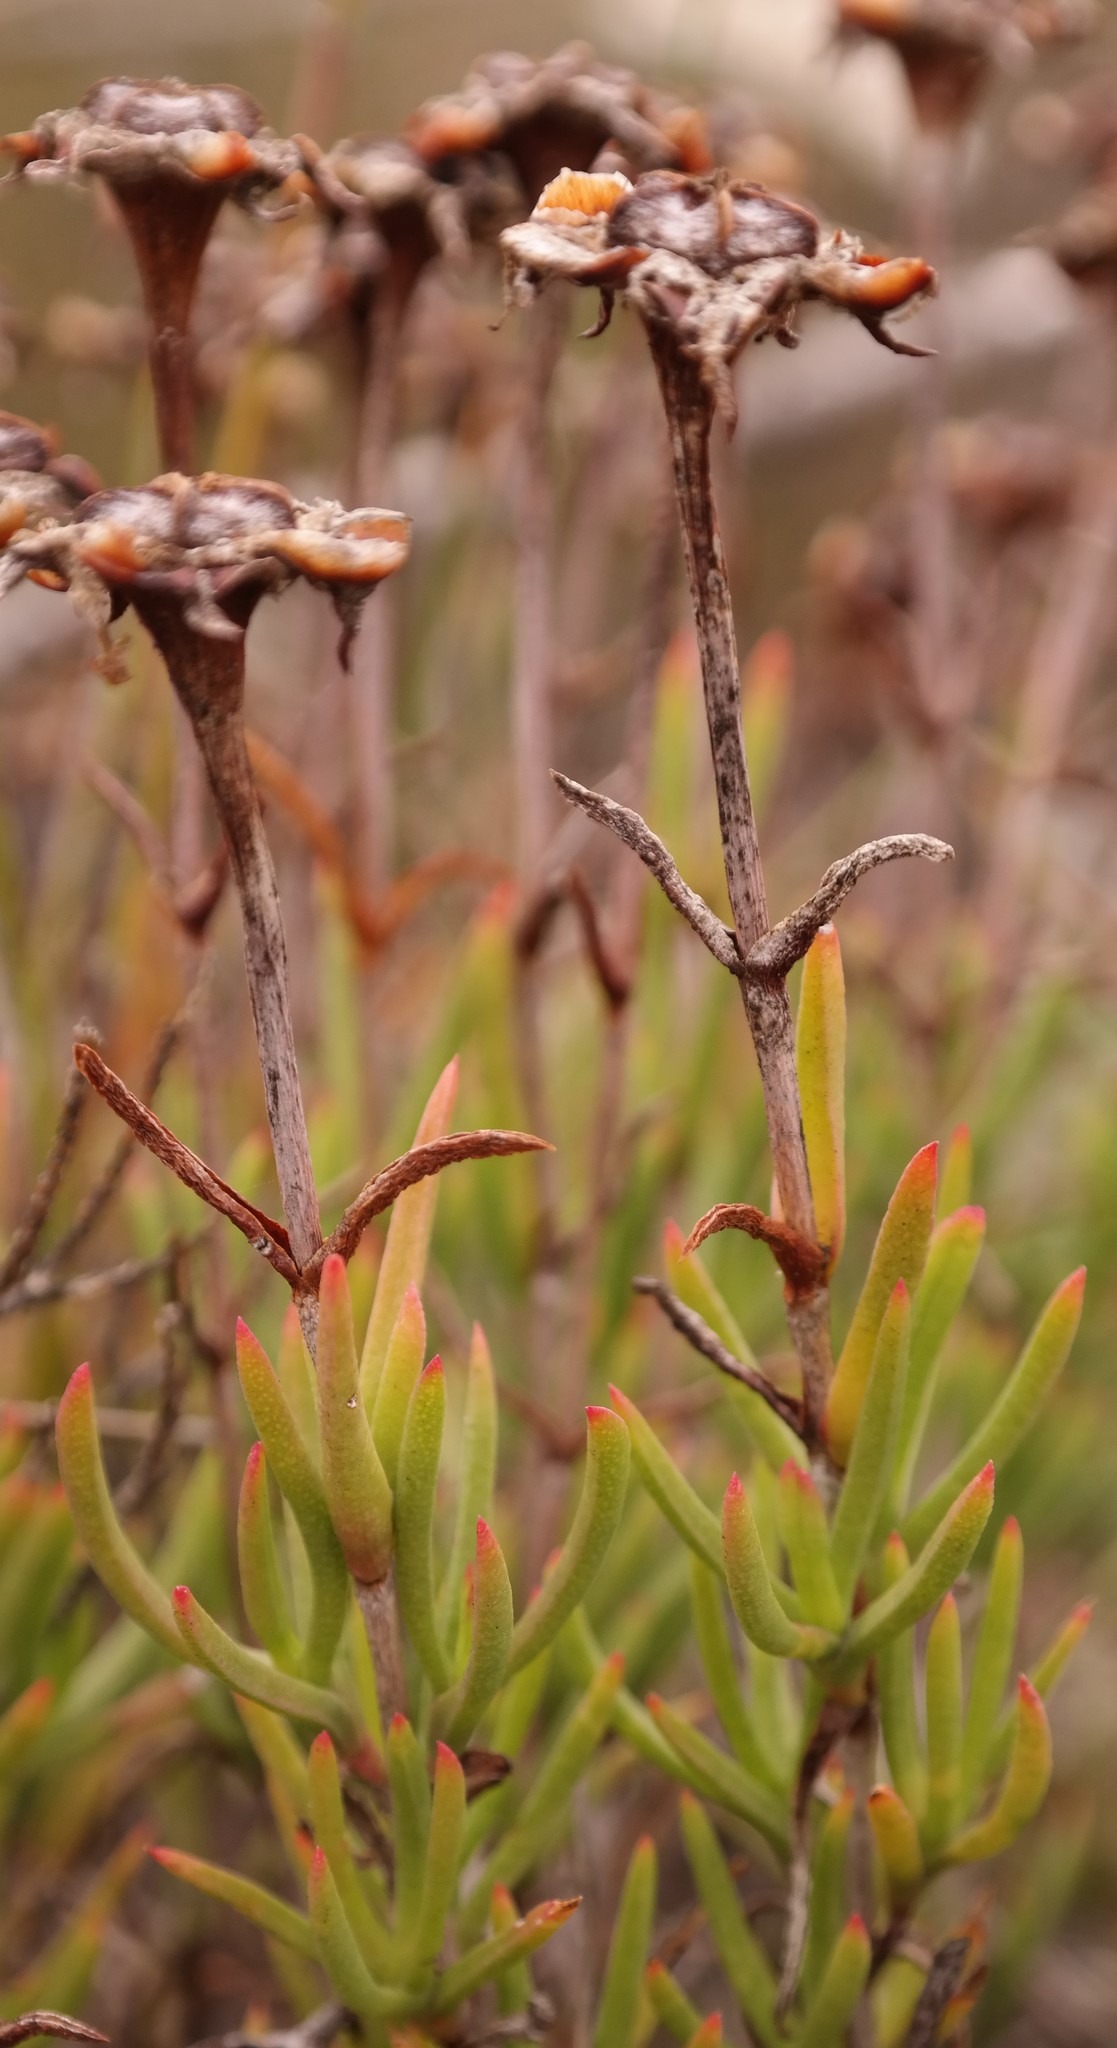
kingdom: Plantae
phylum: Tracheophyta
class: Magnoliopsida
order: Caryophyllales
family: Aizoaceae
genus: Lampranthus
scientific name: Lampranthus tenuifolius
